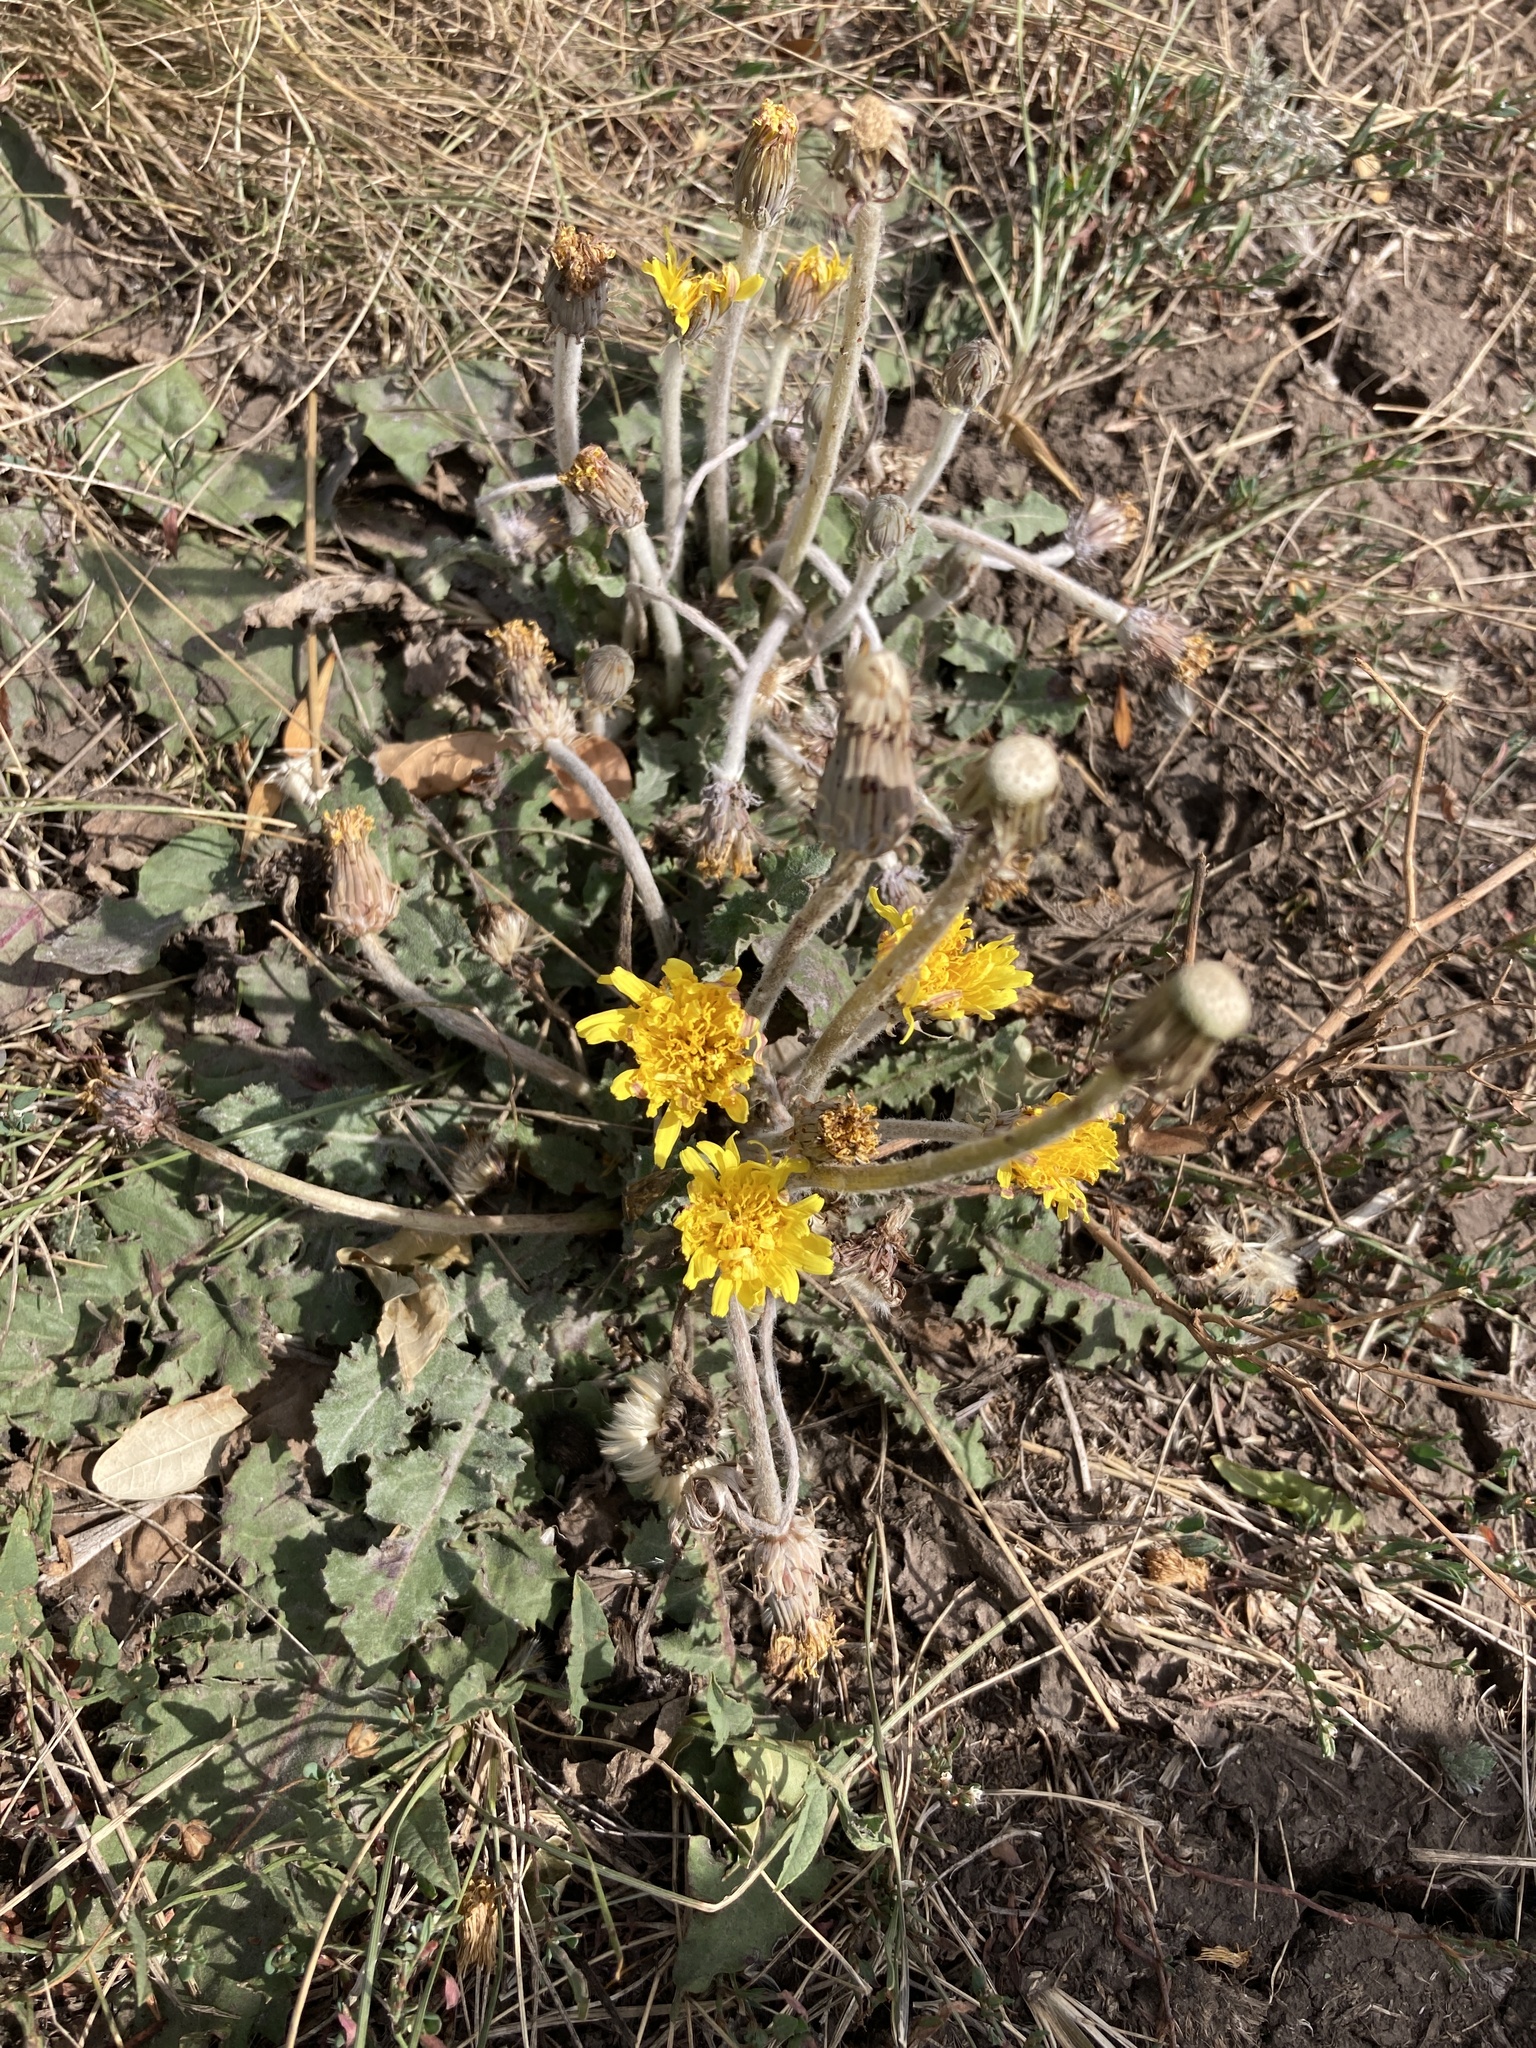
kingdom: Plantae
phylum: Tracheophyta
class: Magnoliopsida
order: Asterales
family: Asteraceae
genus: Taraxacum
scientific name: Taraxacum serotinum
